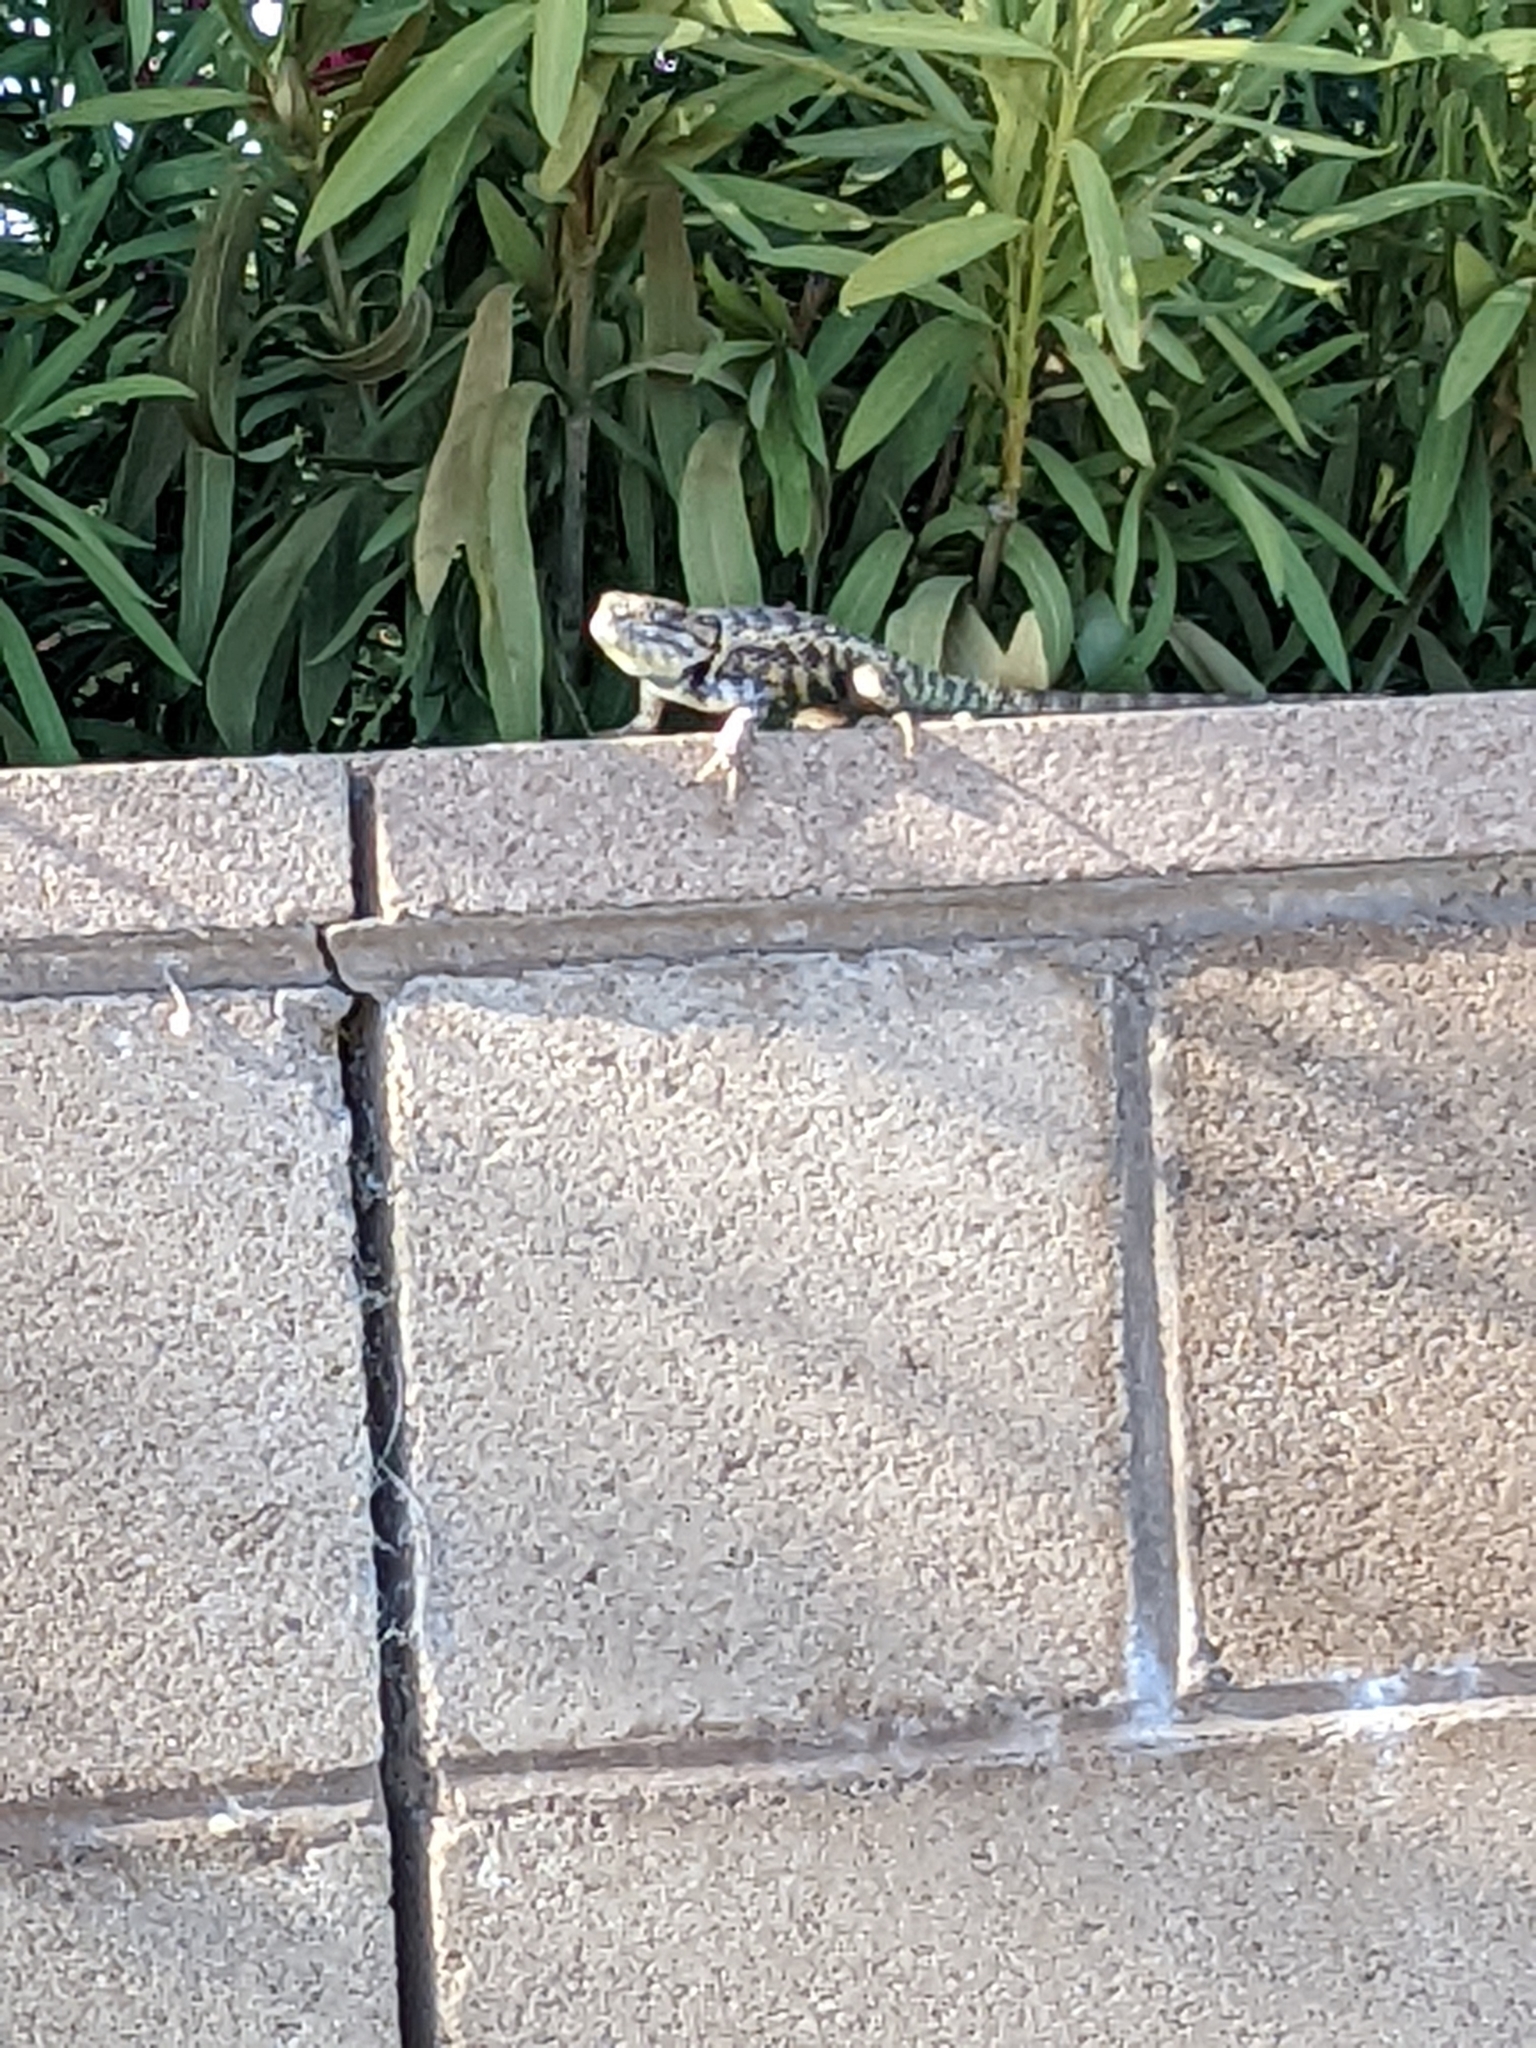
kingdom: Animalia
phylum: Chordata
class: Squamata
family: Phrynosomatidae
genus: Sceloporus
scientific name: Sceloporus magister
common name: Desert spiny lizard
